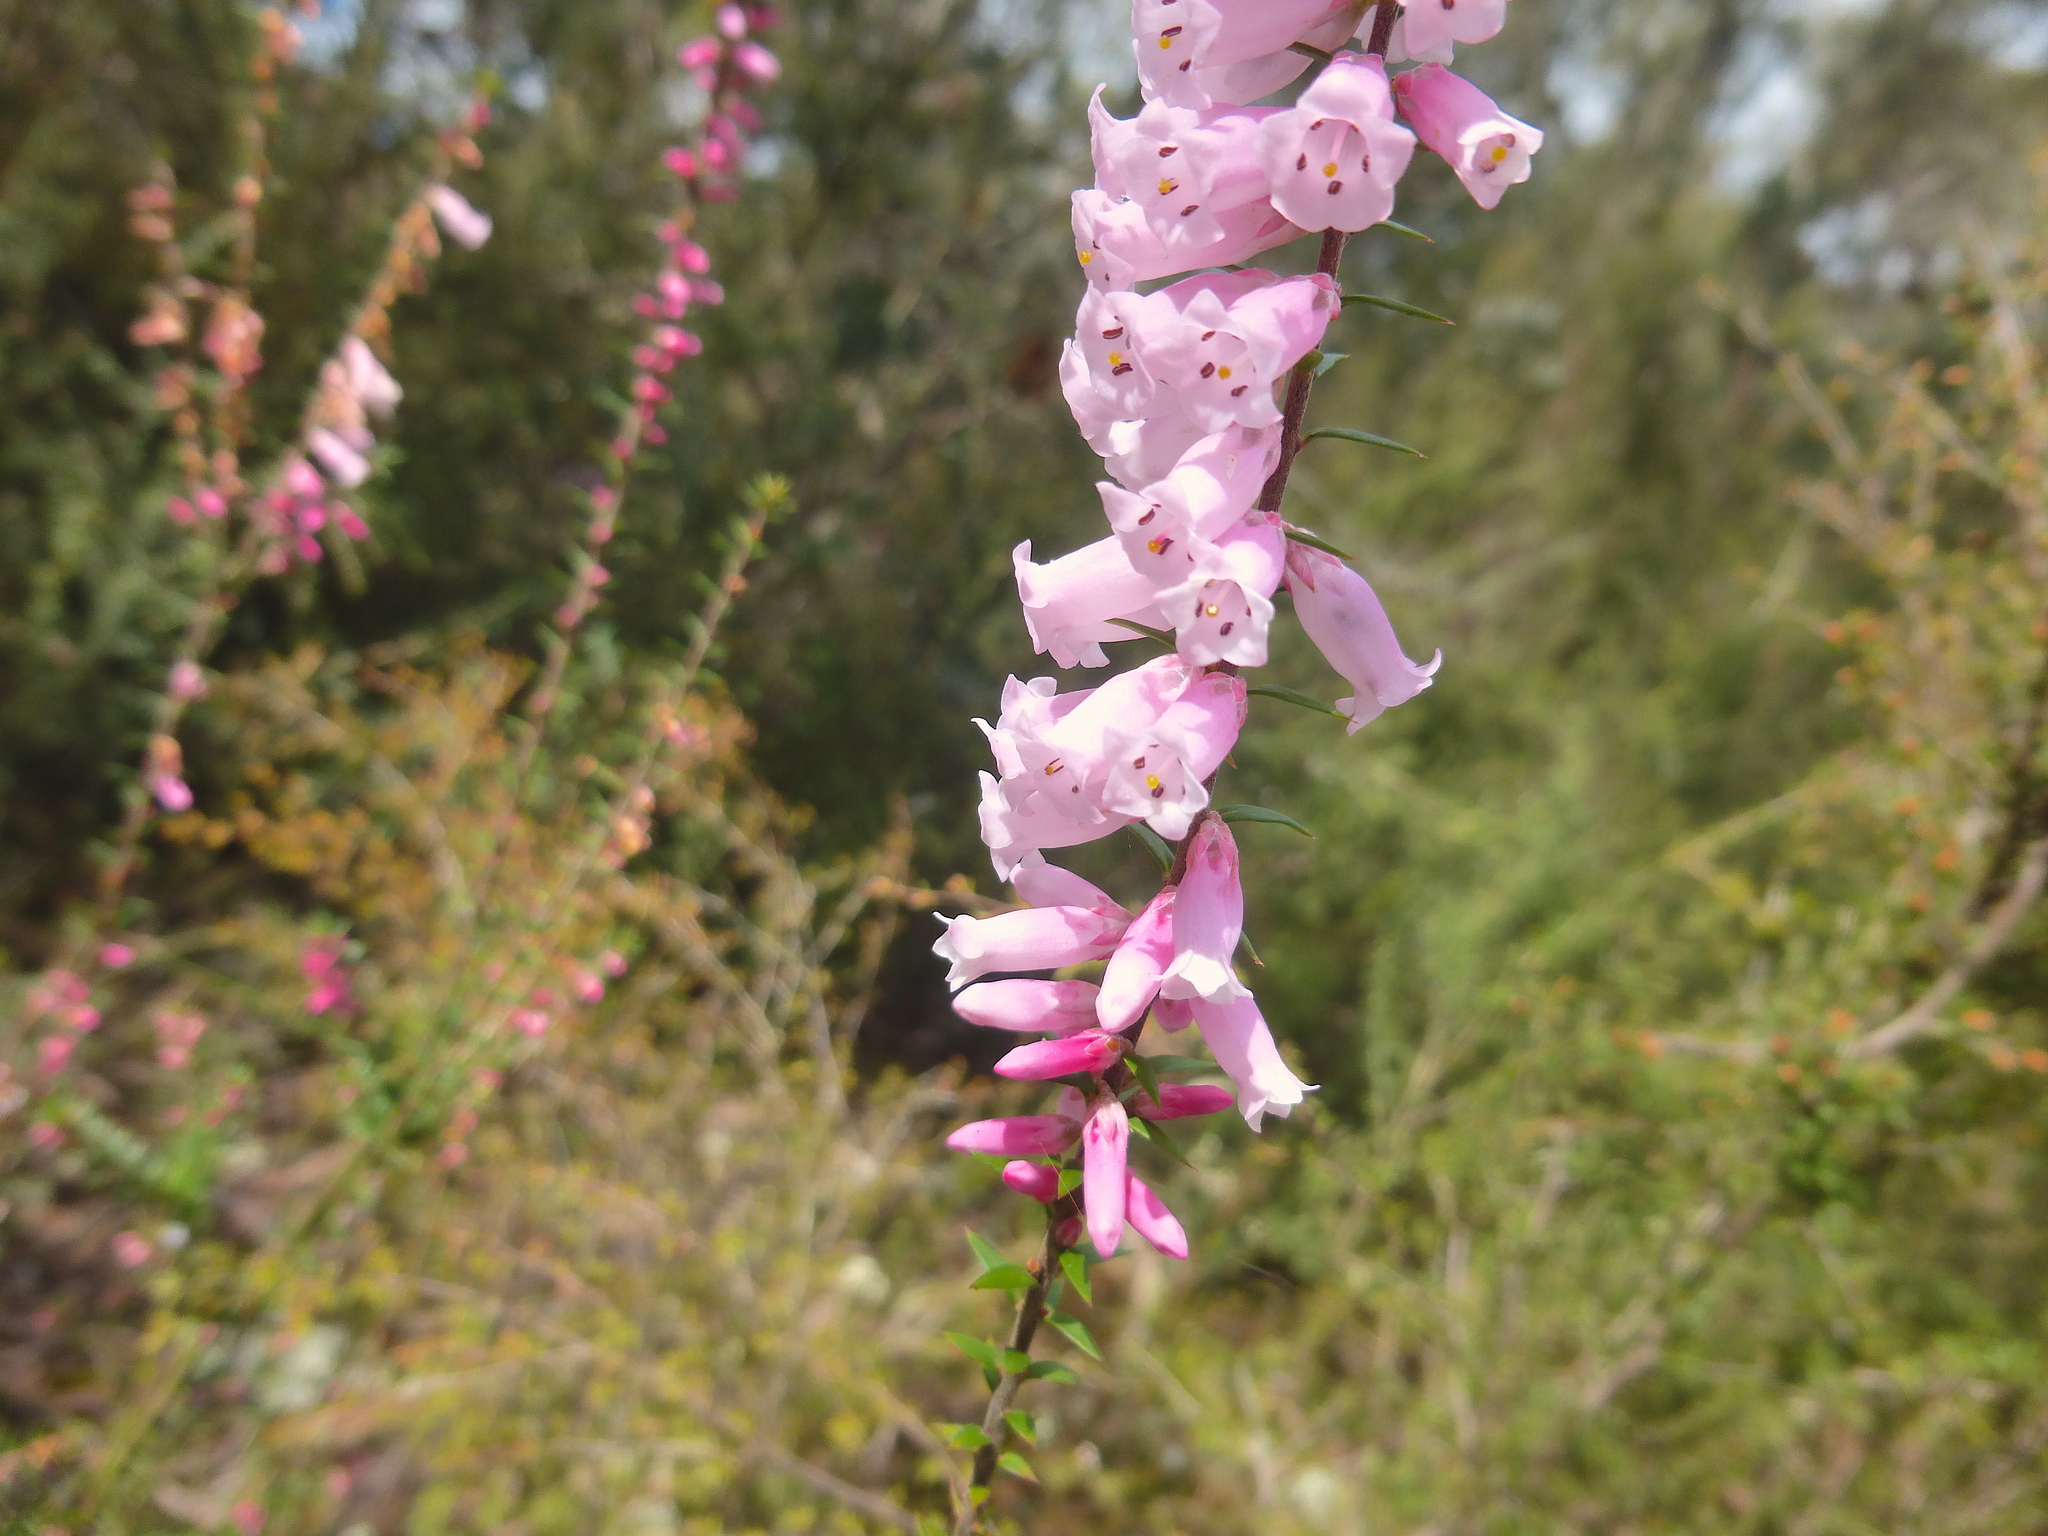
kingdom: Plantae
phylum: Tracheophyta
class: Magnoliopsida
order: Ericales
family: Ericaceae
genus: Epacris
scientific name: Epacris impressa
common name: Common-heath
